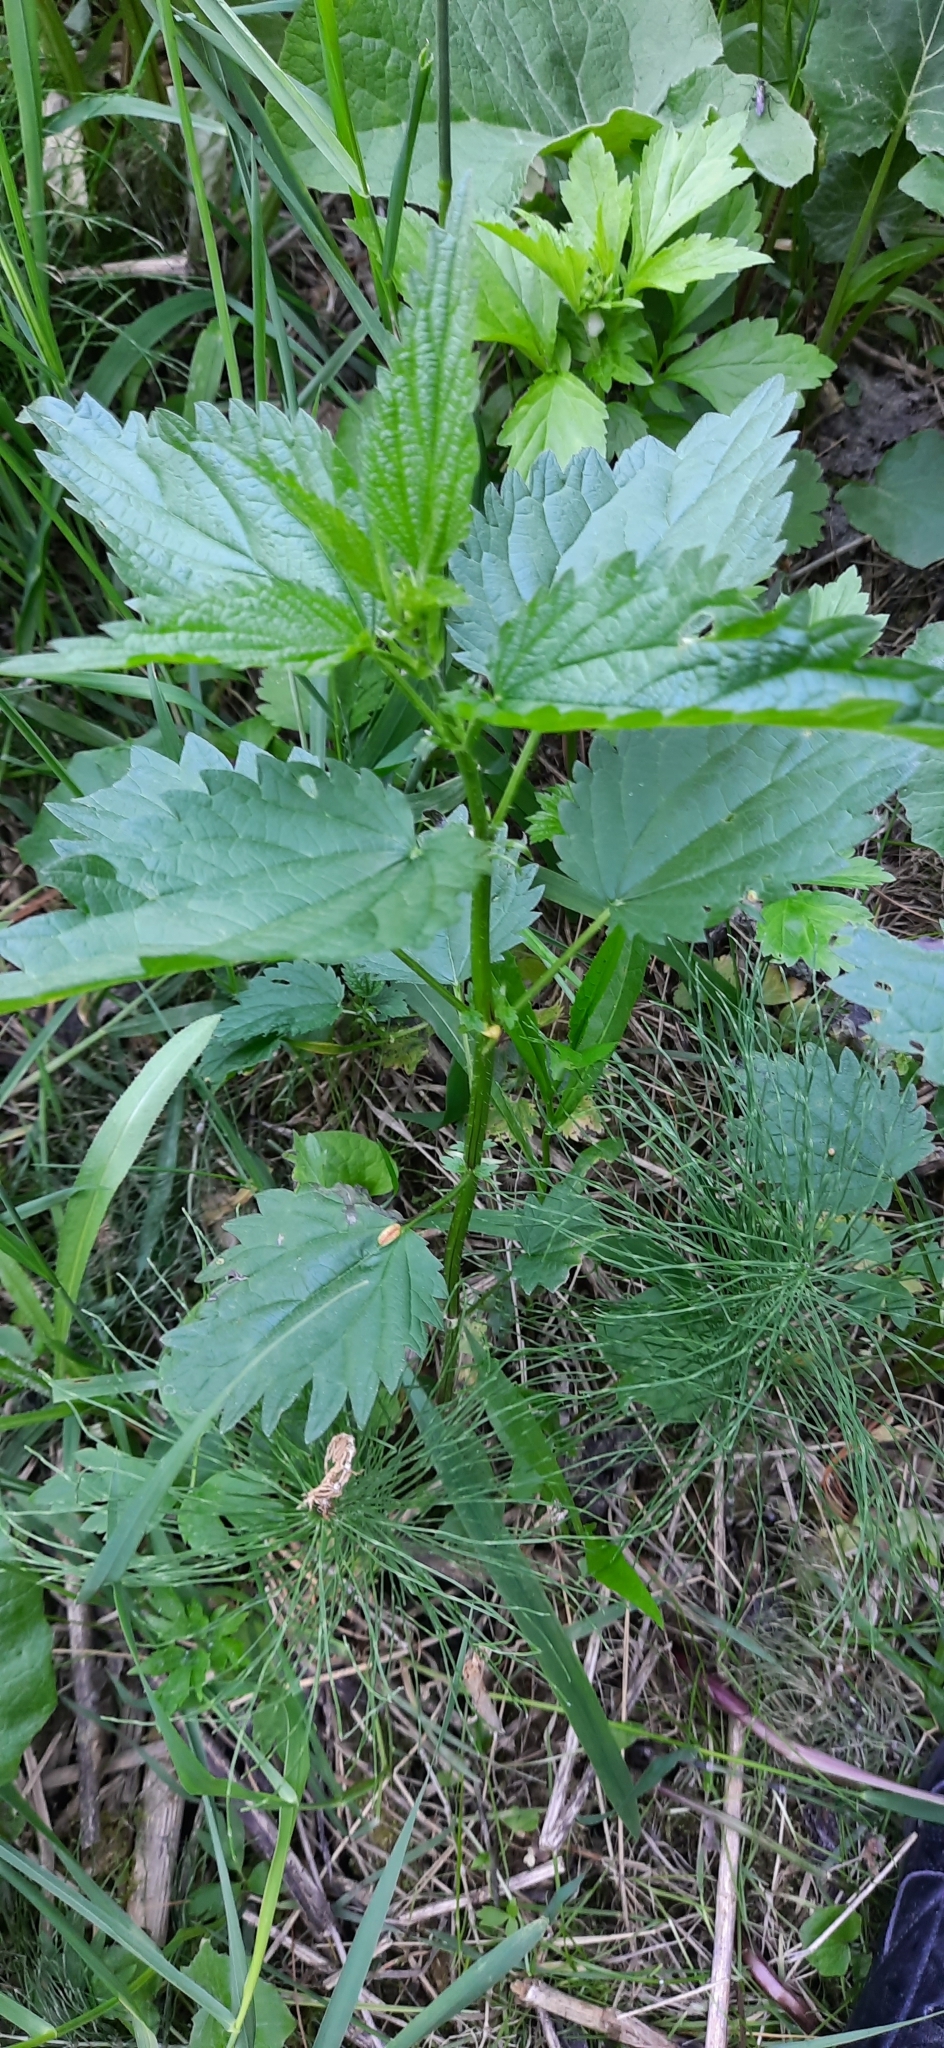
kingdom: Plantae
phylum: Tracheophyta
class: Magnoliopsida
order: Rosales
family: Urticaceae
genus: Urtica
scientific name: Urtica dioica
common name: Common nettle
